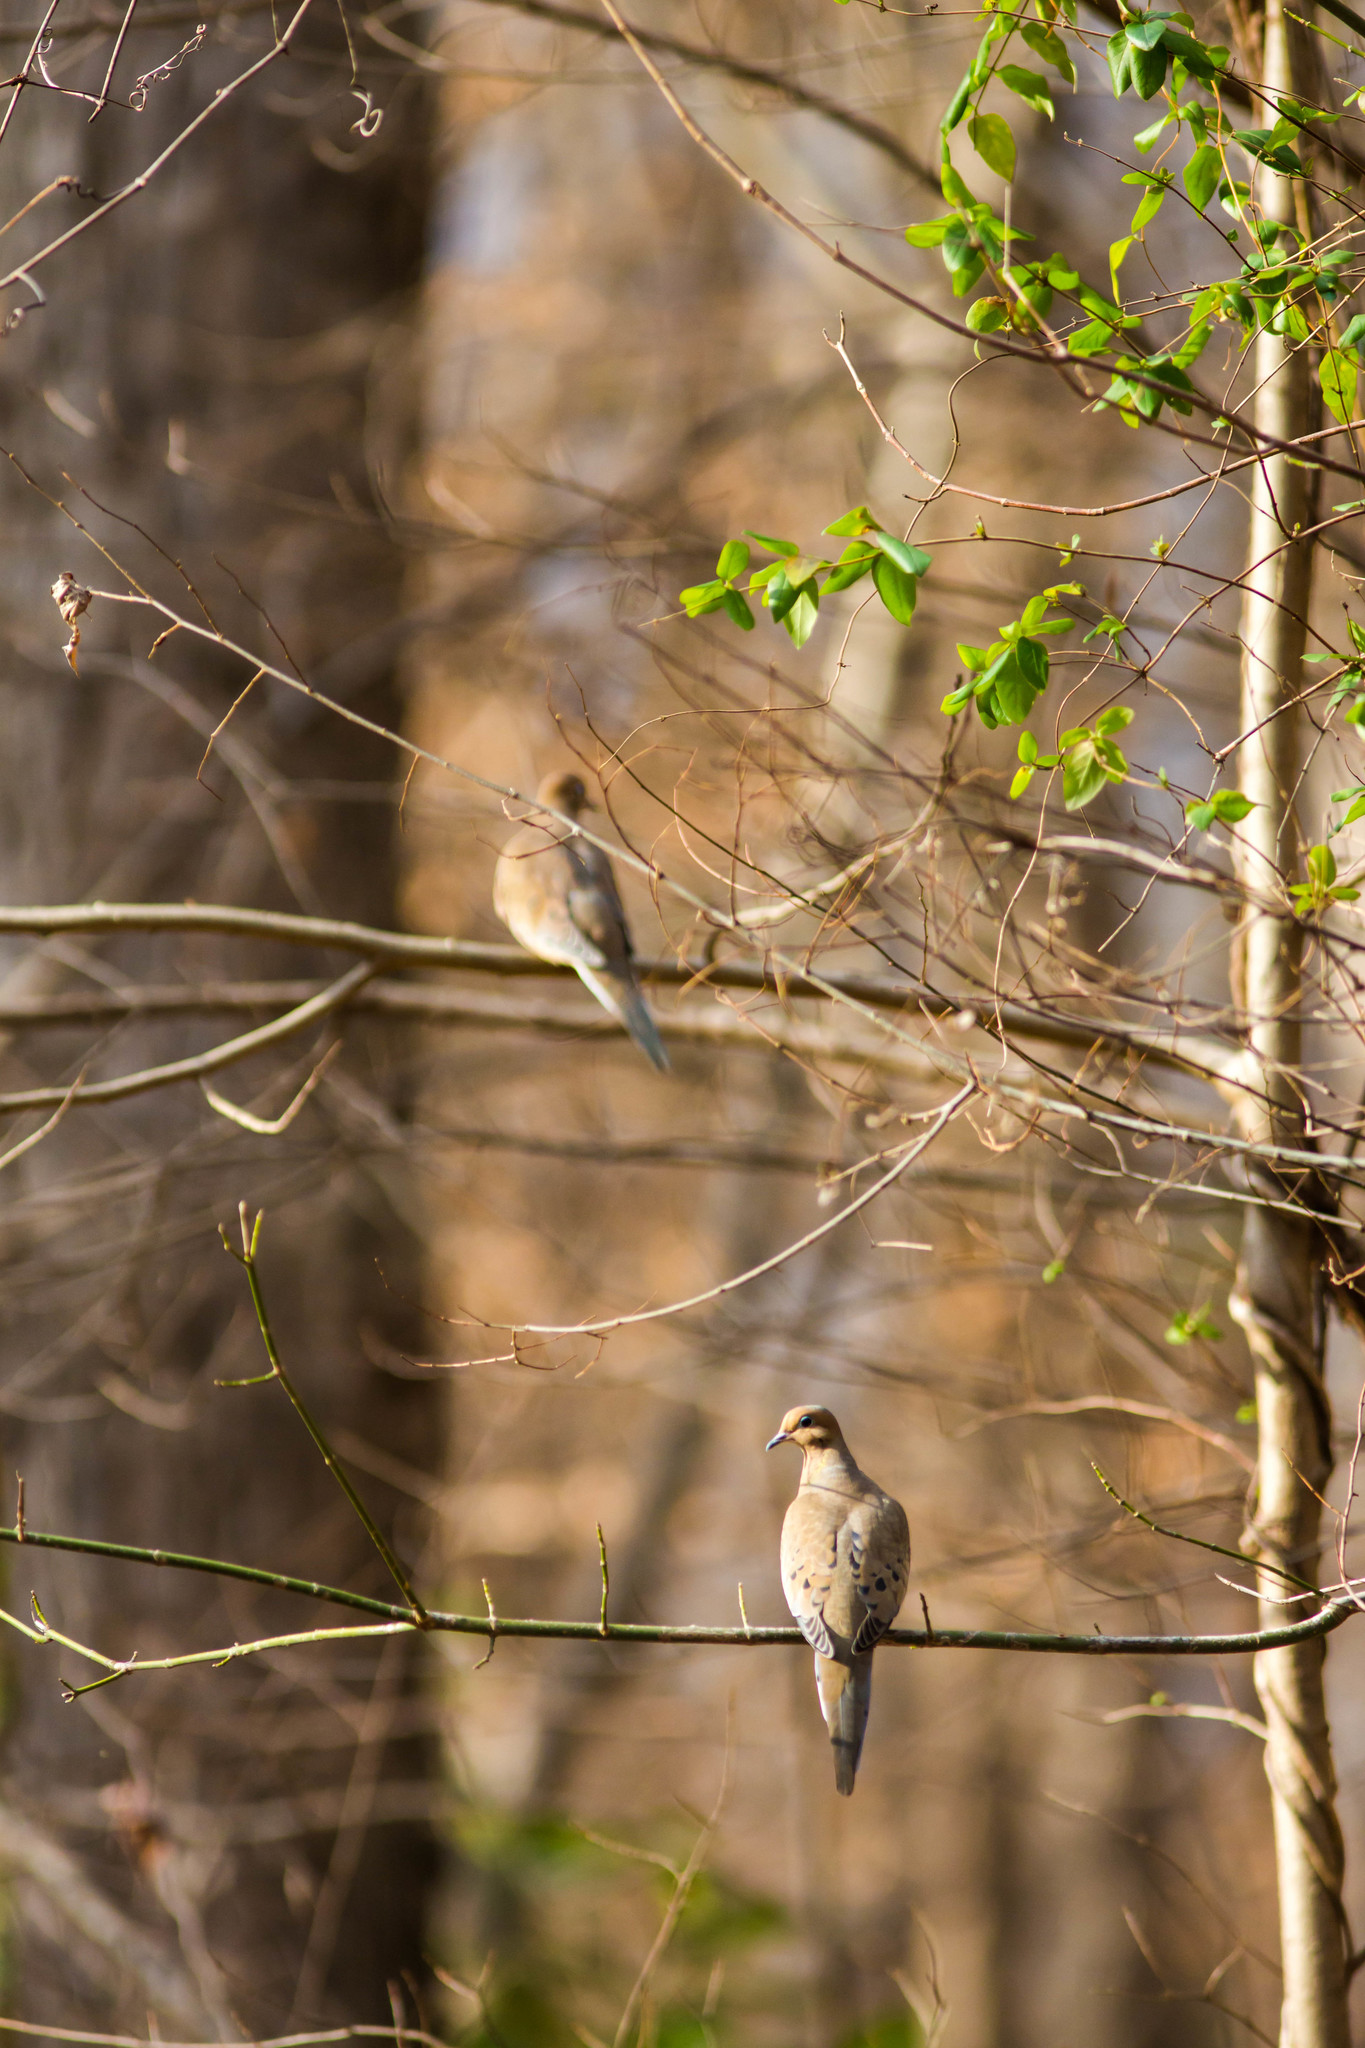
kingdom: Animalia
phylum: Chordata
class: Aves
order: Columbiformes
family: Columbidae
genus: Zenaida
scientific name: Zenaida macroura
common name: Mourning dove
